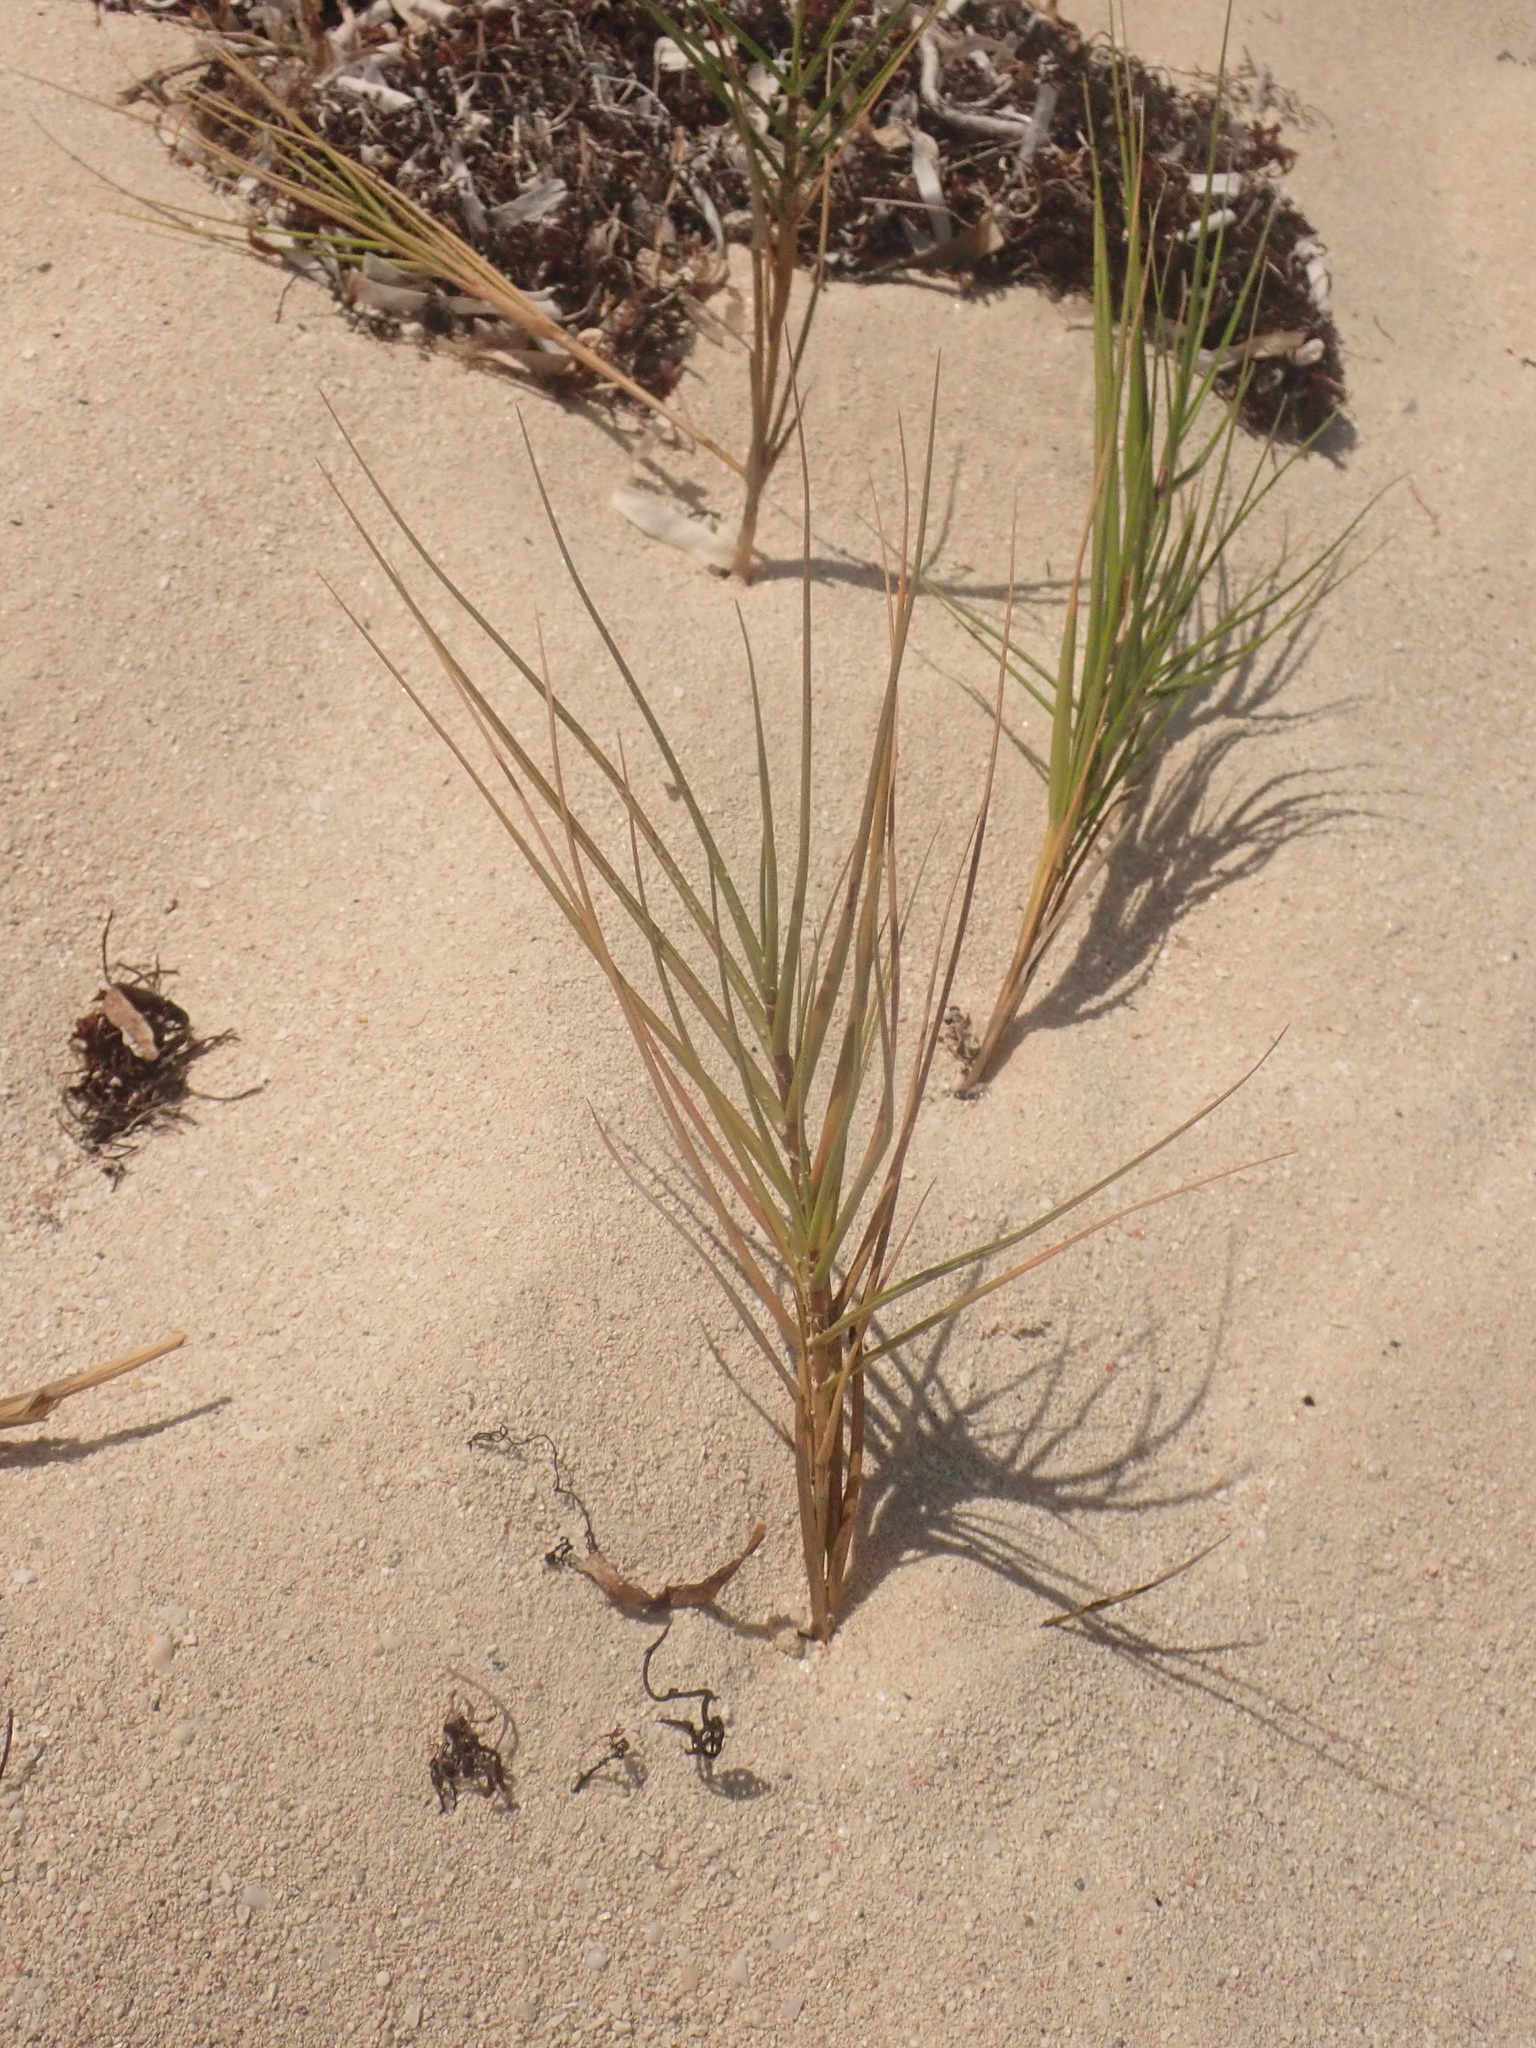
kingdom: Plantae
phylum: Tracheophyta
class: Liliopsida
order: Poales
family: Poaceae
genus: Distichlis
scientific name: Distichlis spicata
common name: Saltgrass
